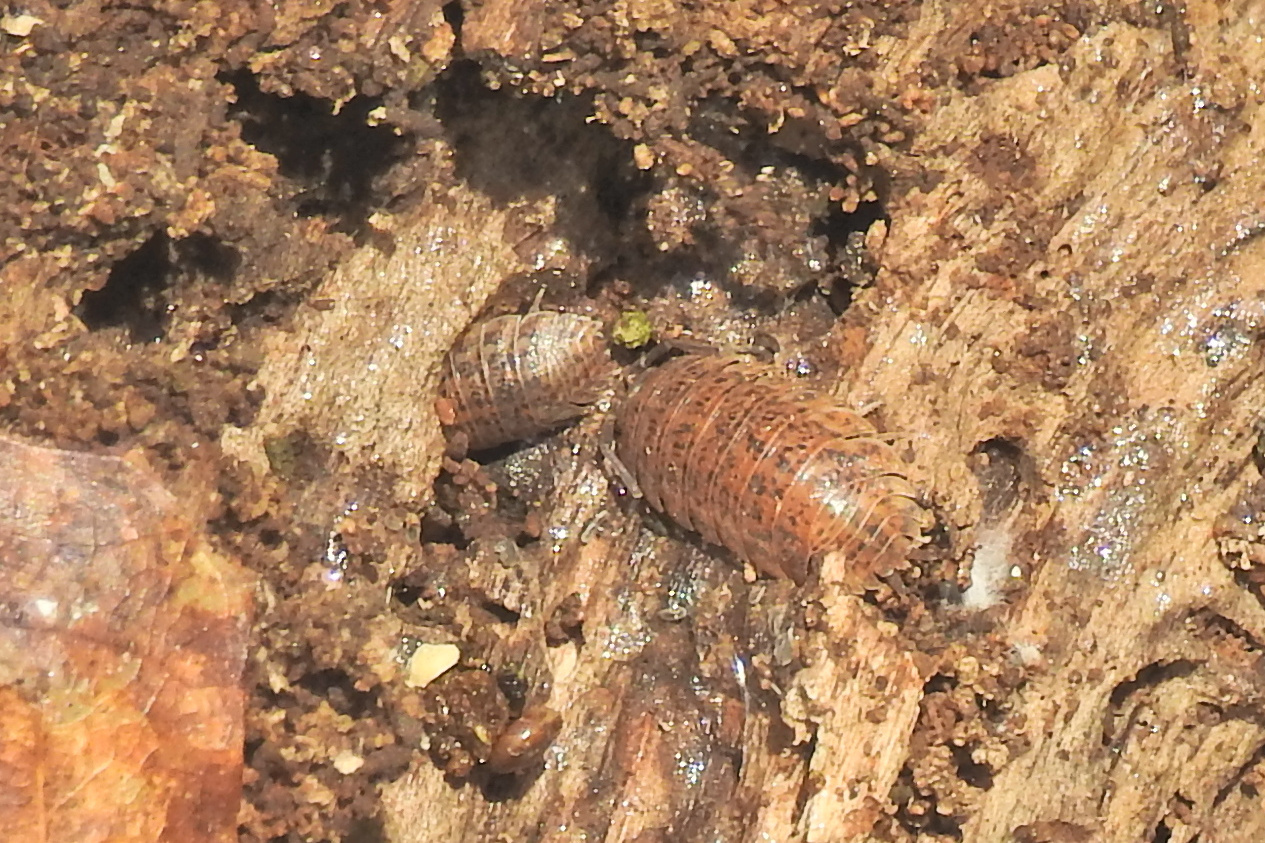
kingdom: Animalia
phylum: Arthropoda
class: Malacostraca
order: Isopoda
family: Trachelipodidae
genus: Trachelipus
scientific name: Trachelipus rathkii
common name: Isopod
